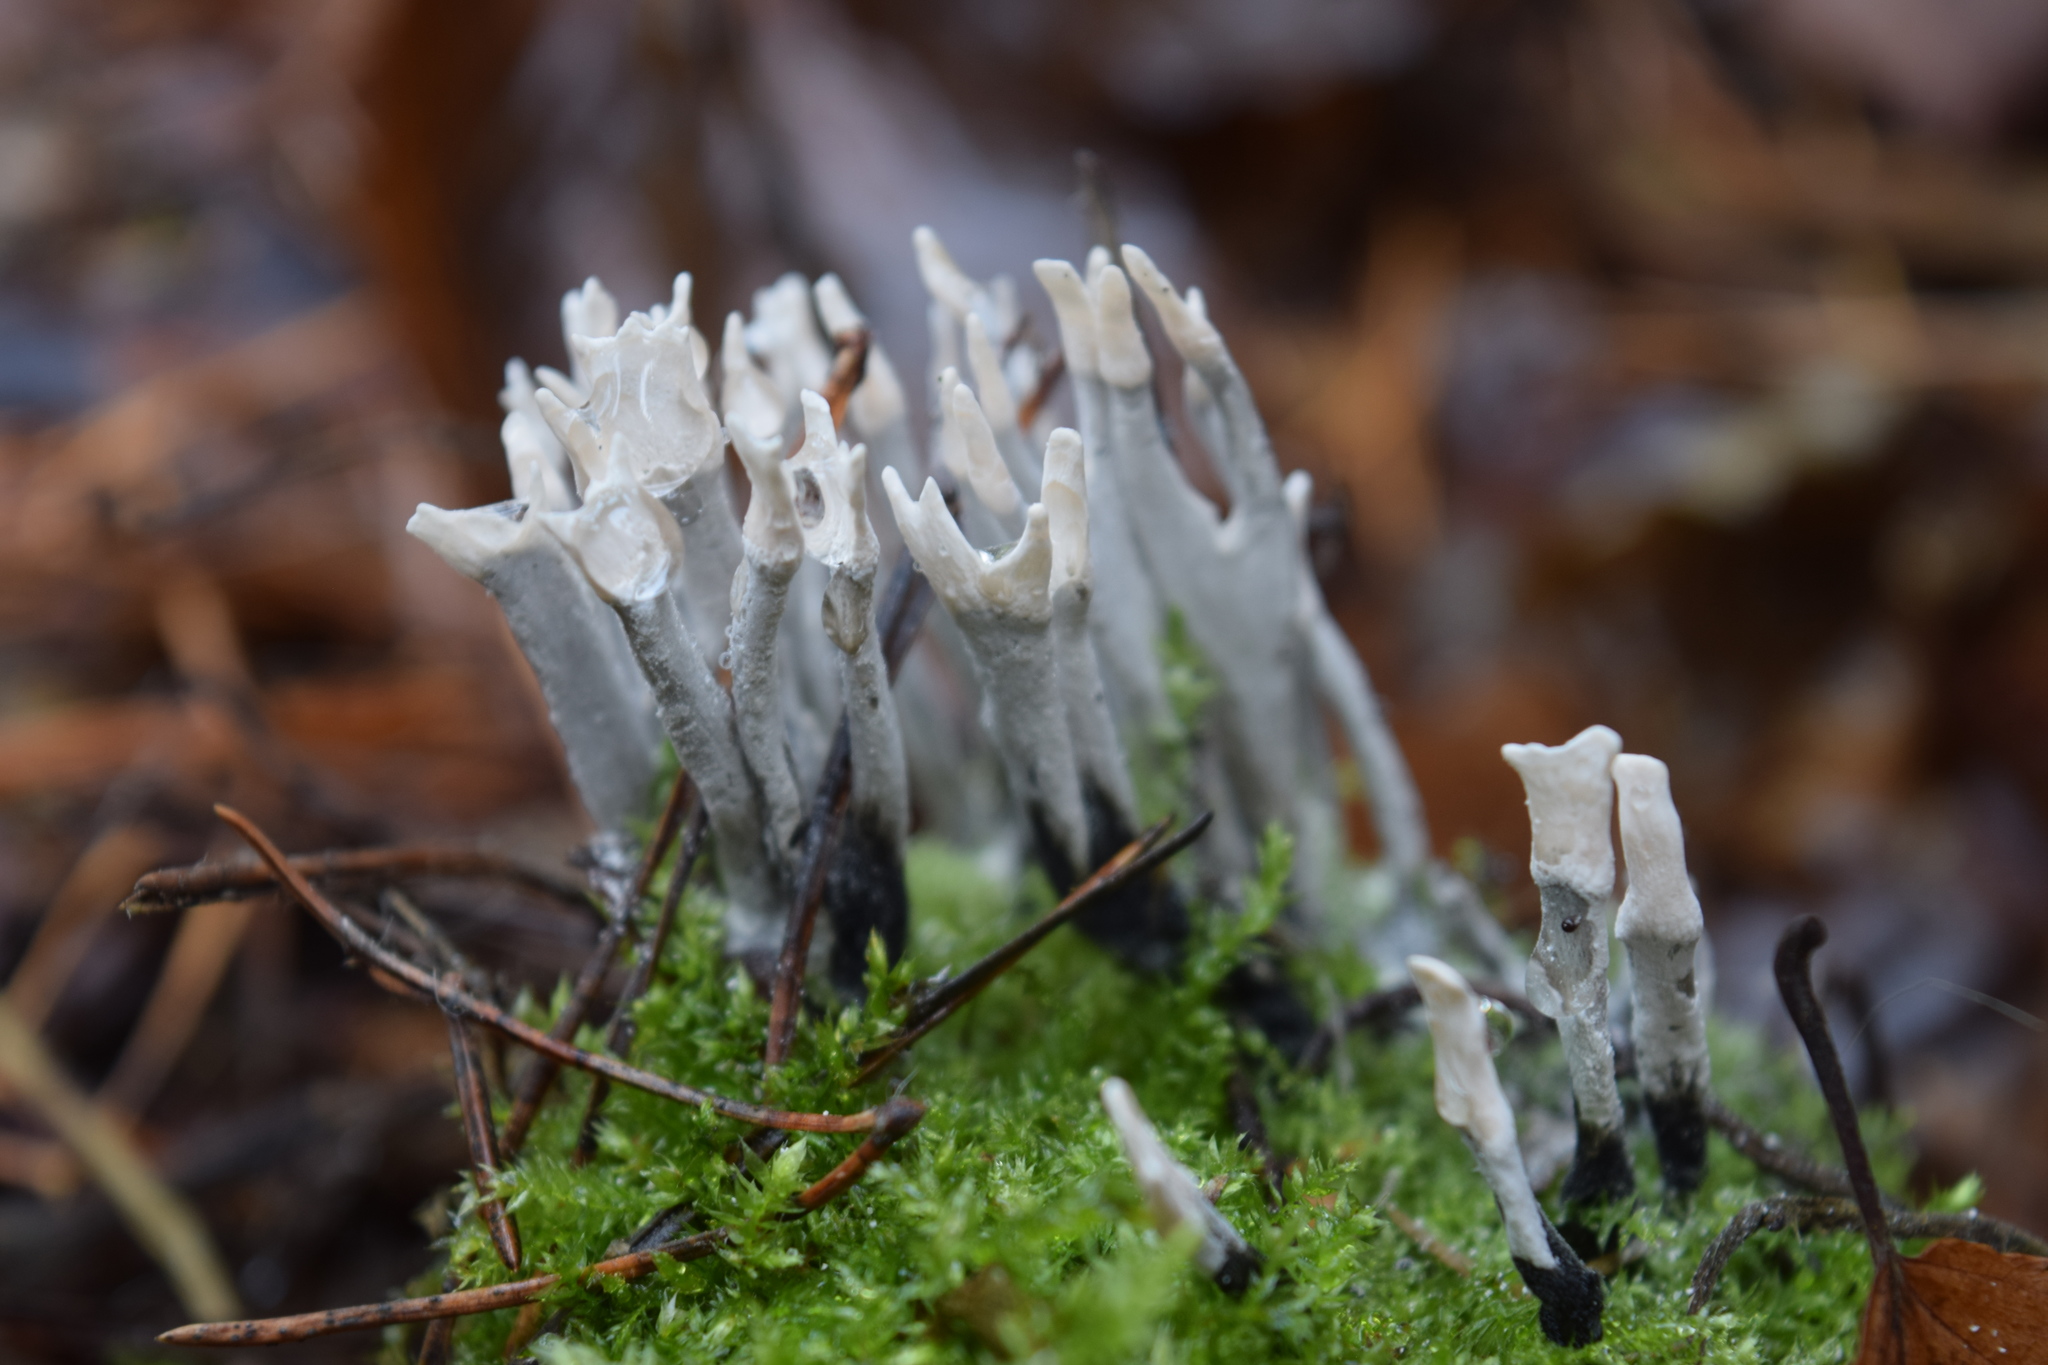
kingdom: Fungi
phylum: Ascomycota
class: Sordariomycetes
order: Xylariales
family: Xylariaceae
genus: Xylaria
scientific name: Xylaria hypoxylon
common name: Candle-snuff fungus
